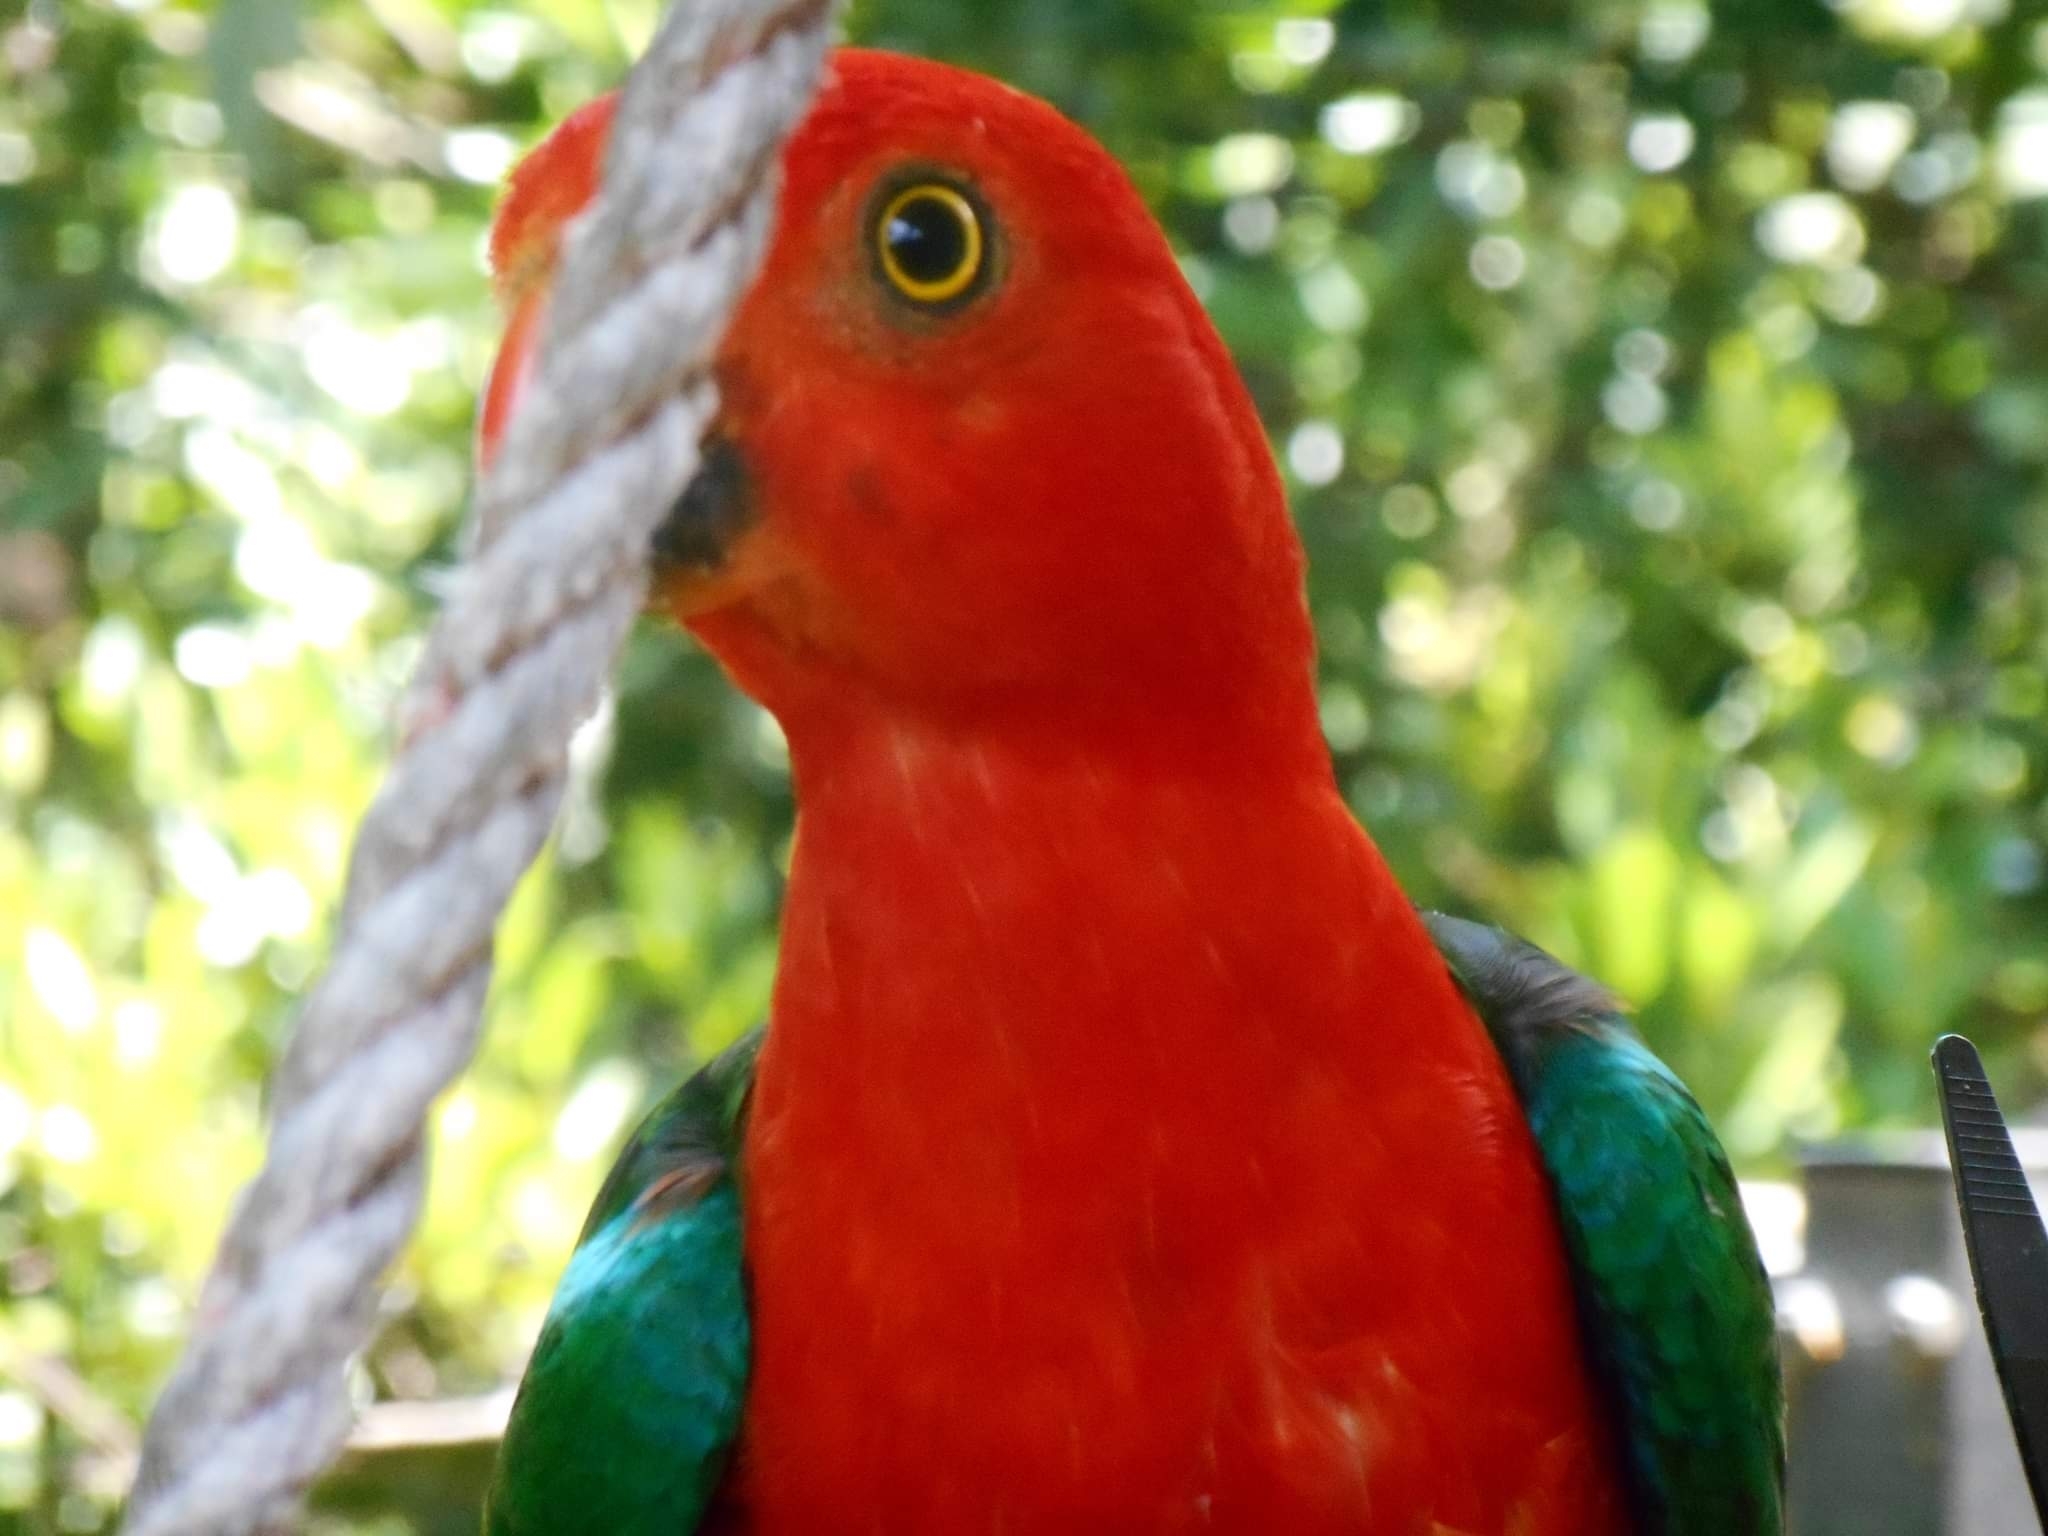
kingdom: Animalia
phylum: Chordata
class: Aves
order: Psittaciformes
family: Psittacidae
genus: Alisterus
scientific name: Alisterus scapularis
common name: Australian king parrot
